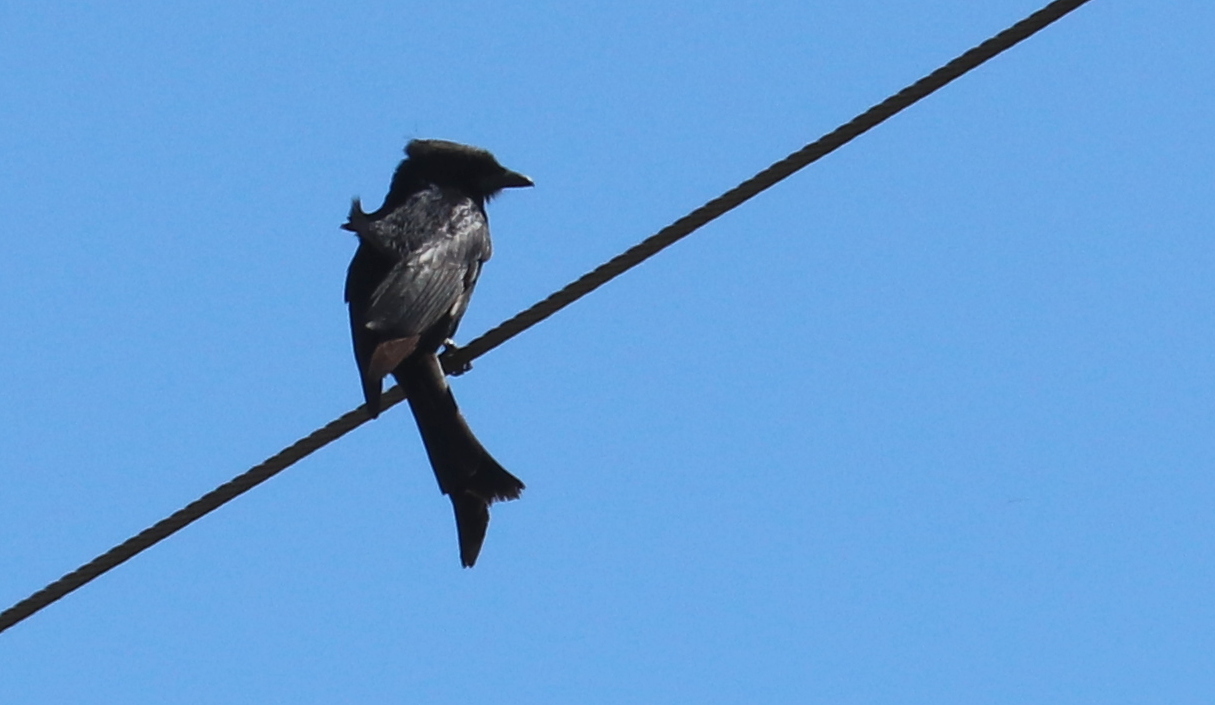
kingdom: Animalia
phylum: Chordata
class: Aves
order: Passeriformes
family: Dicruridae
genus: Dicrurus
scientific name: Dicrurus adsimilis
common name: Fork-tailed drongo
